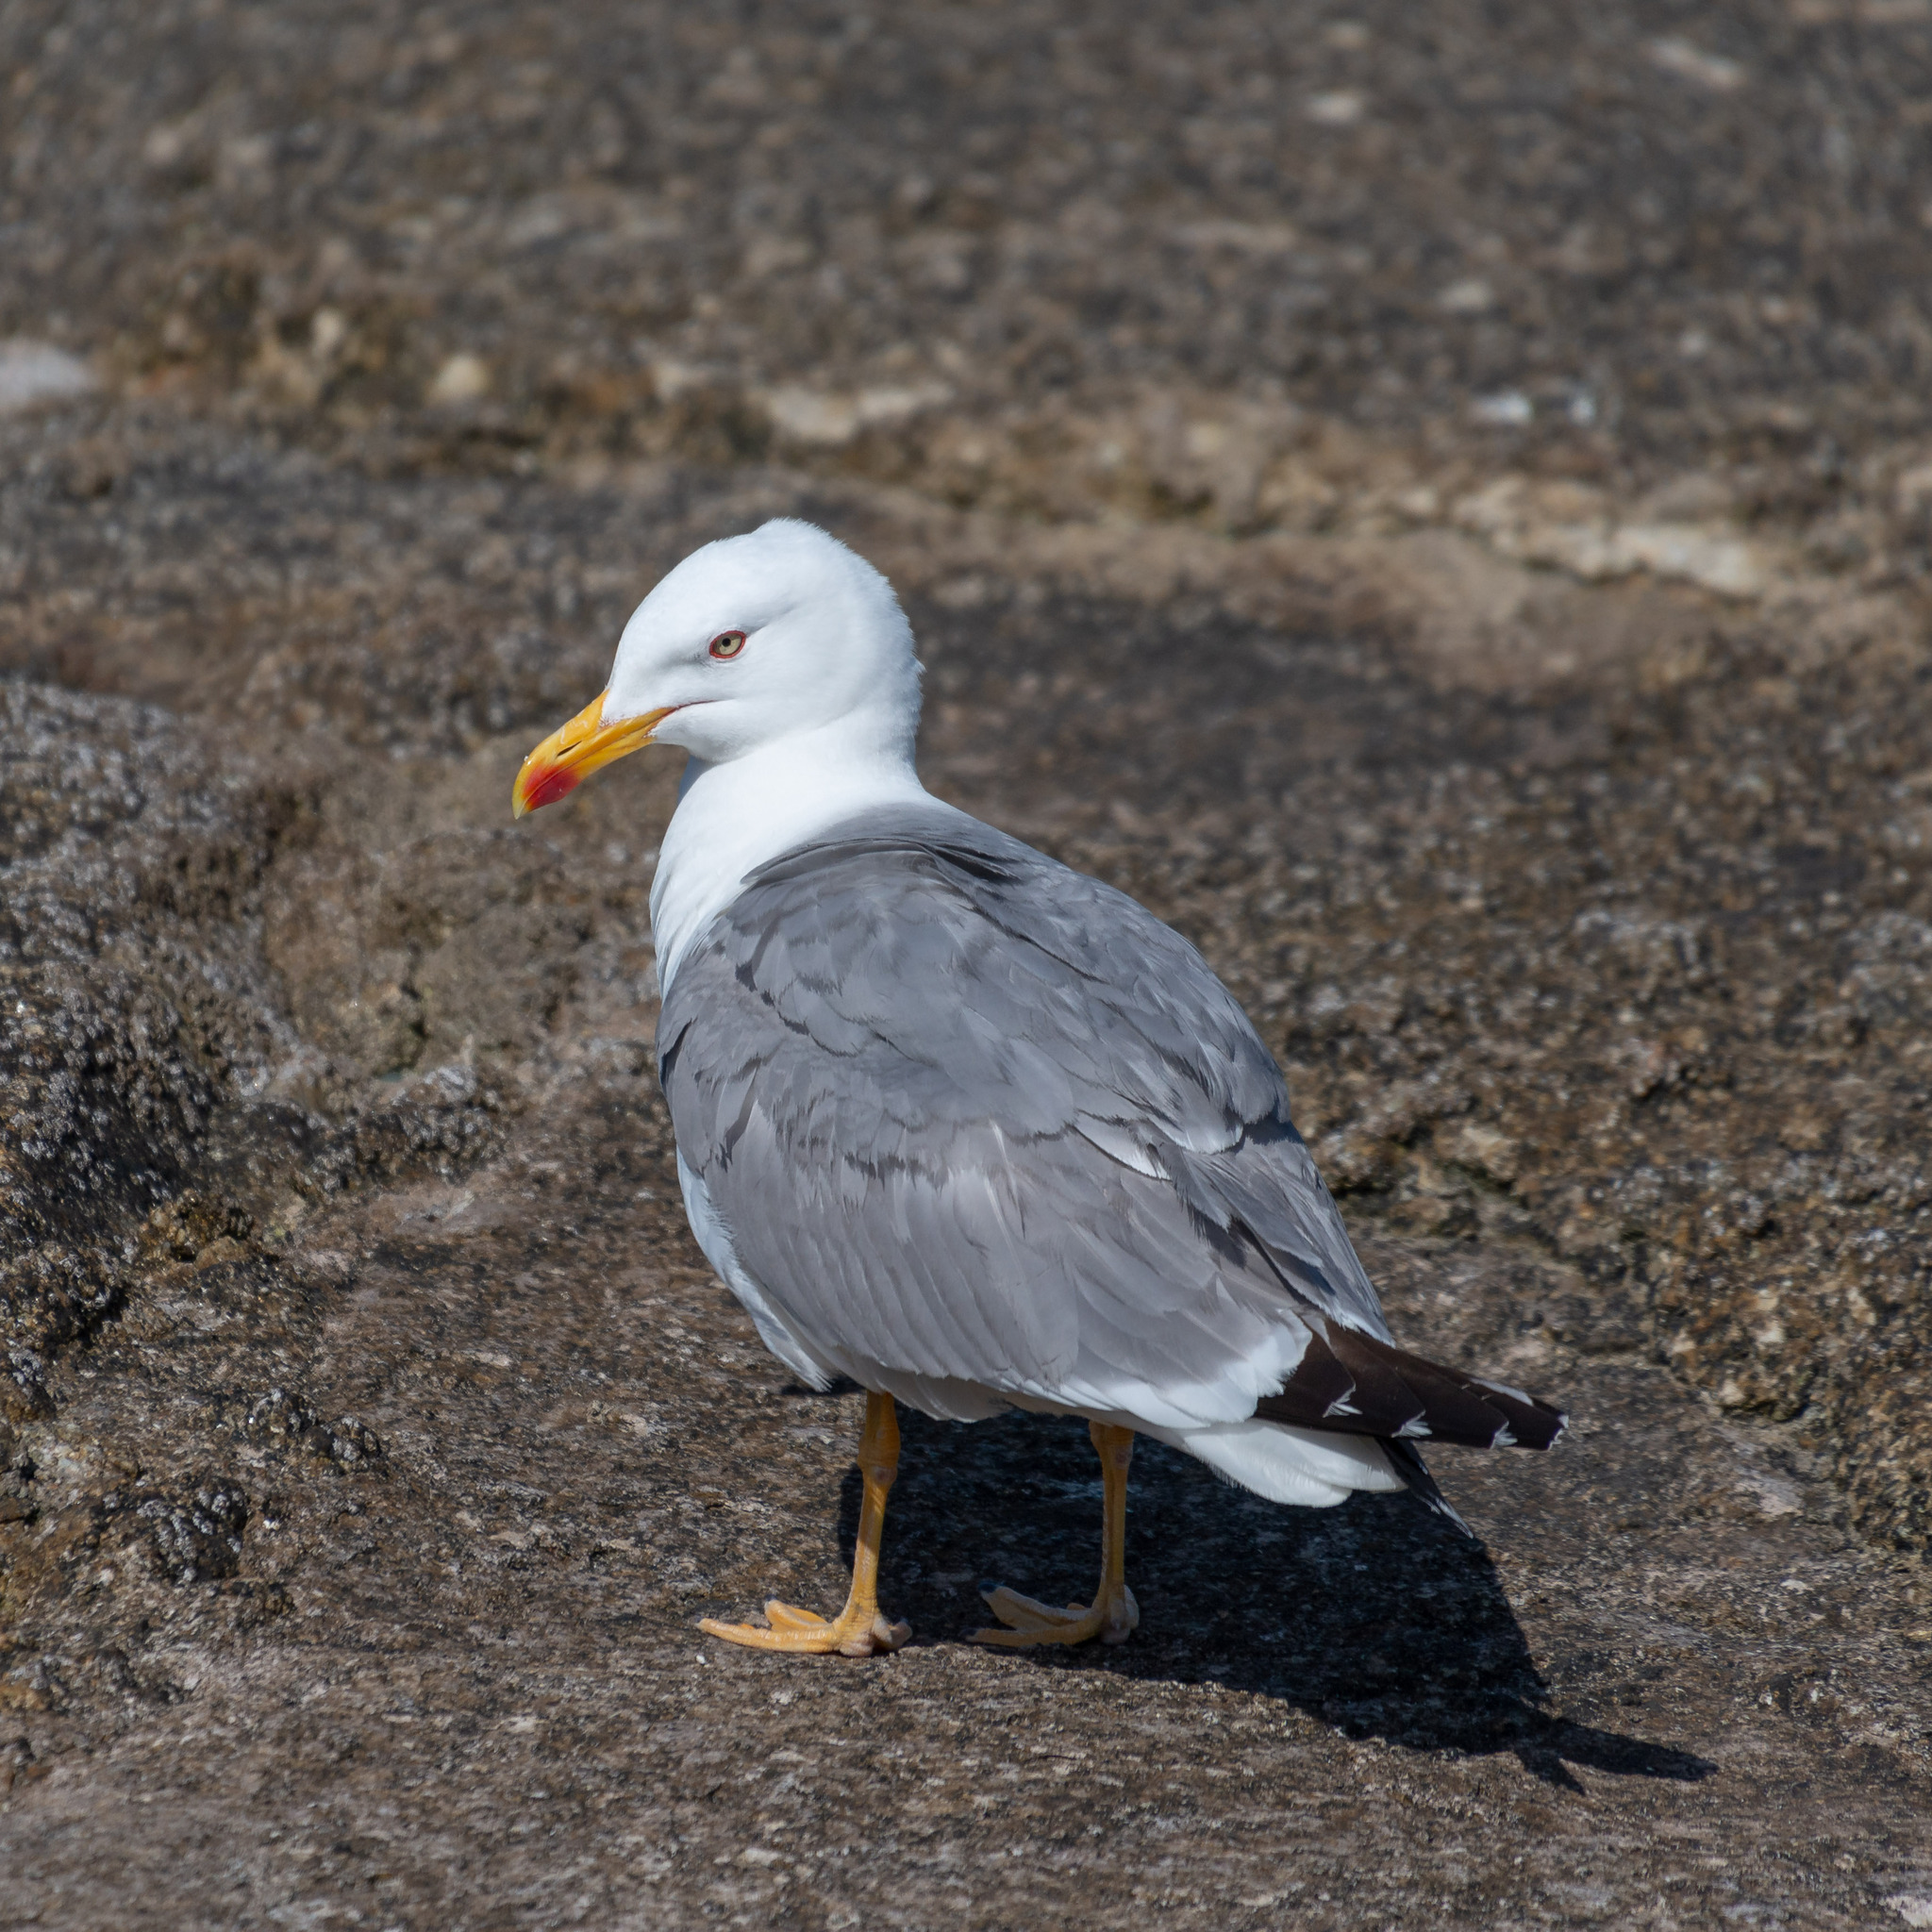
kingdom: Animalia
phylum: Chordata
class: Aves
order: Charadriiformes
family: Laridae
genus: Larus
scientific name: Larus michahellis
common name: Yellow-legged gull
